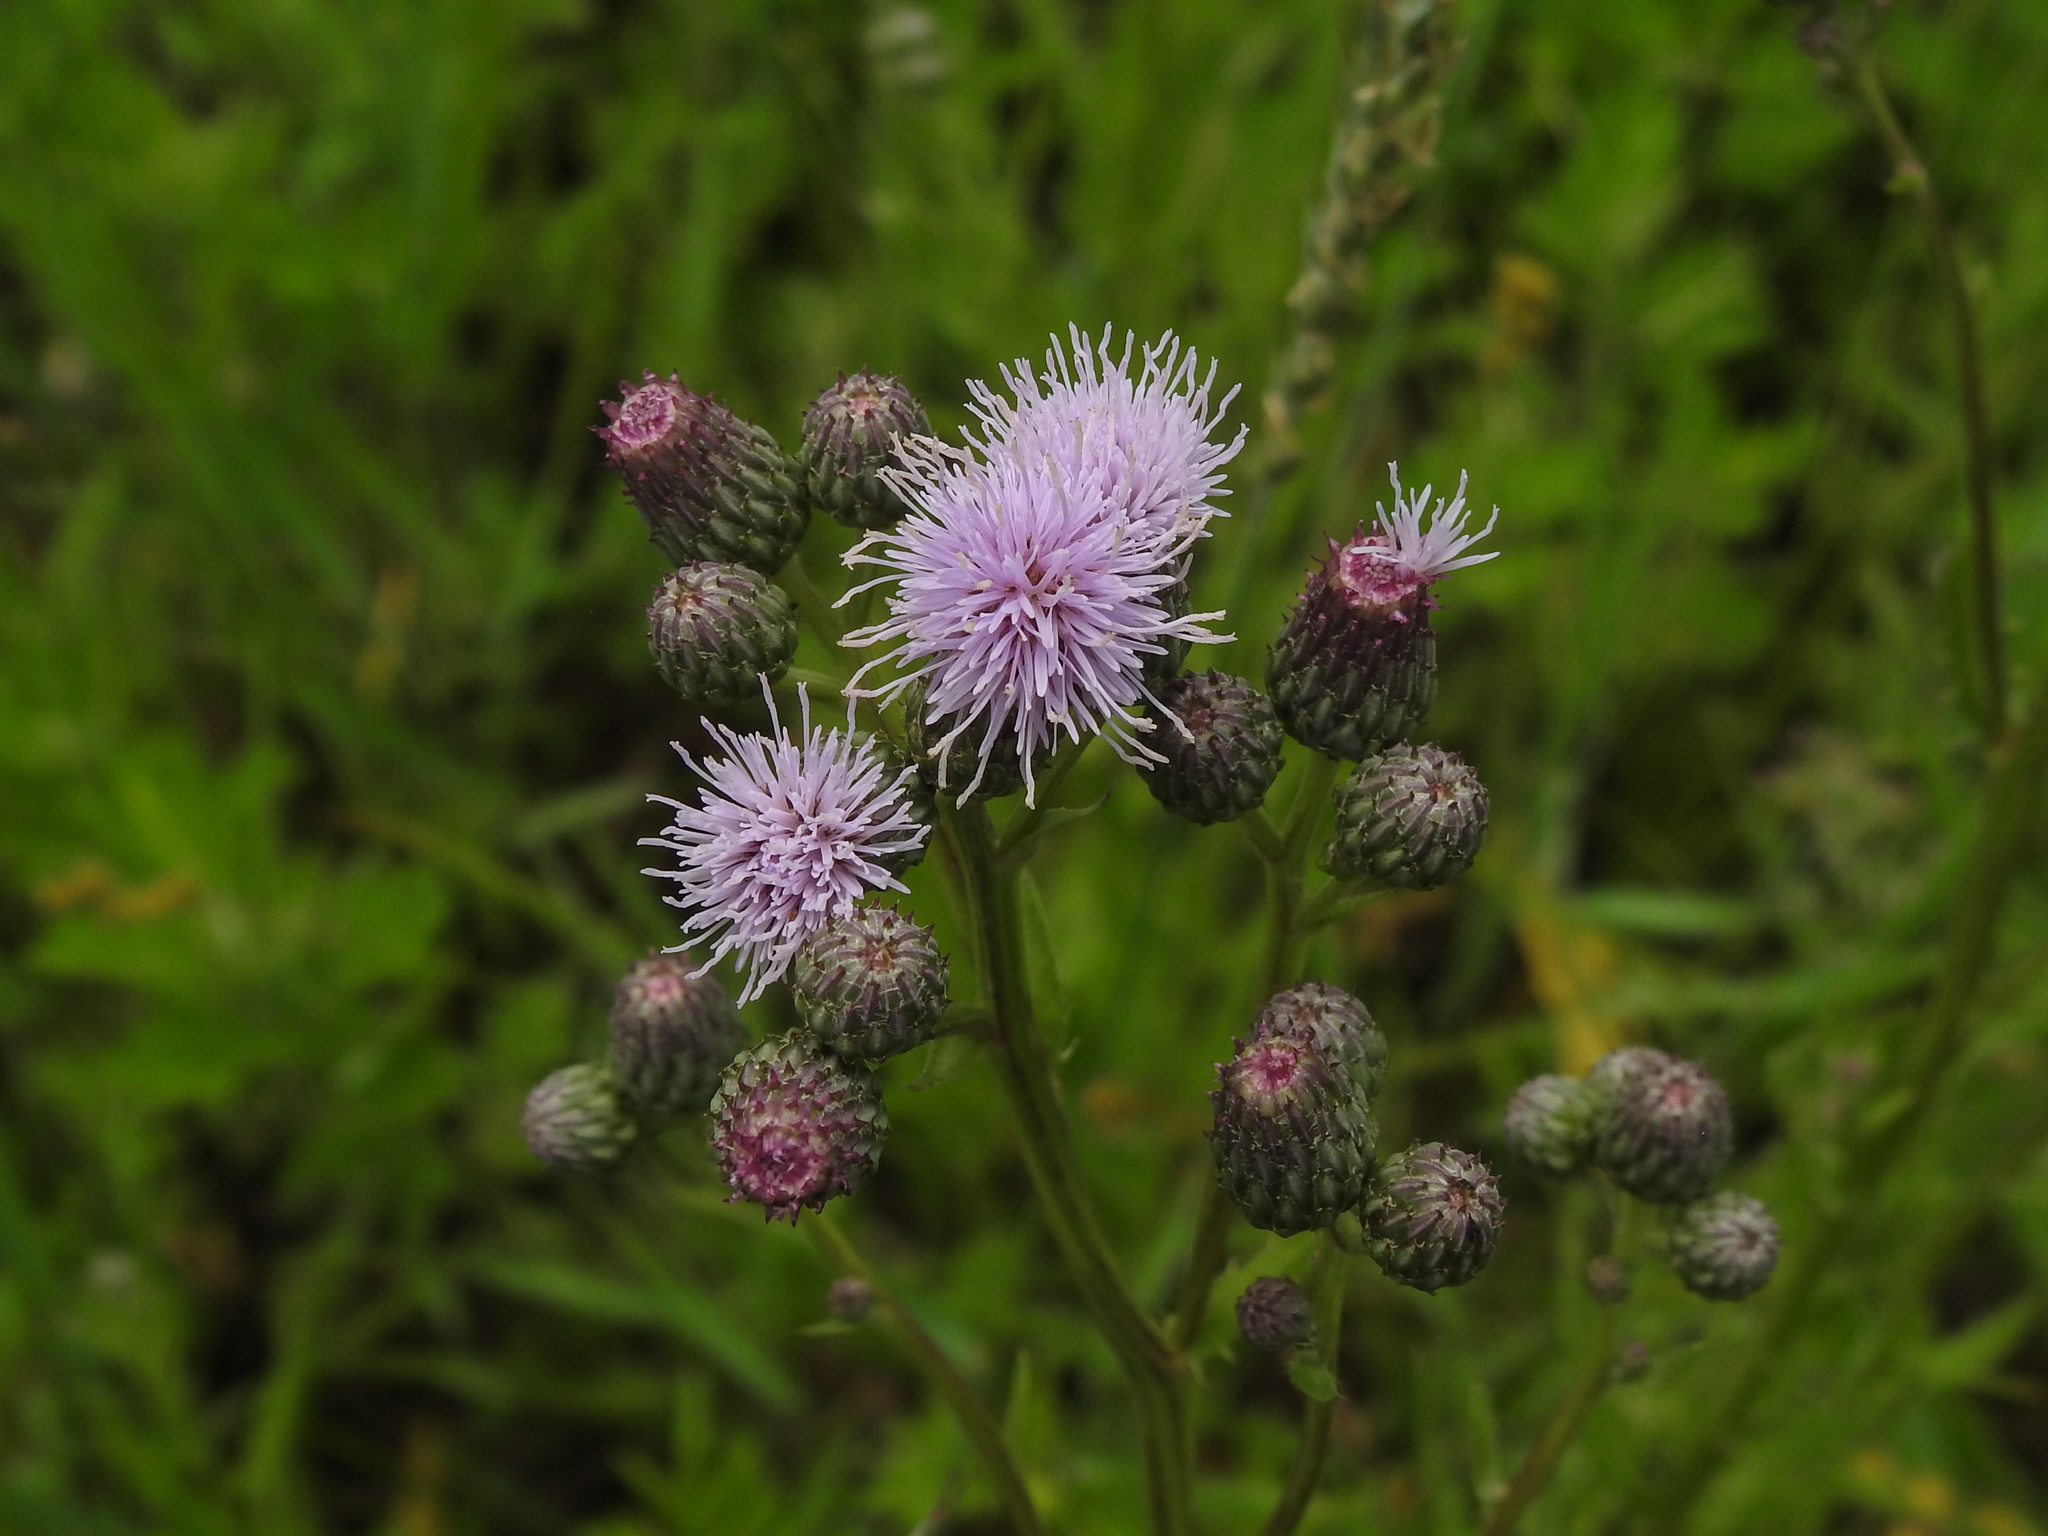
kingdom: Plantae
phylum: Tracheophyta
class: Magnoliopsida
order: Asterales
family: Asteraceae
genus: Cirsium
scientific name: Cirsium arvense
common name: Creeping thistle
